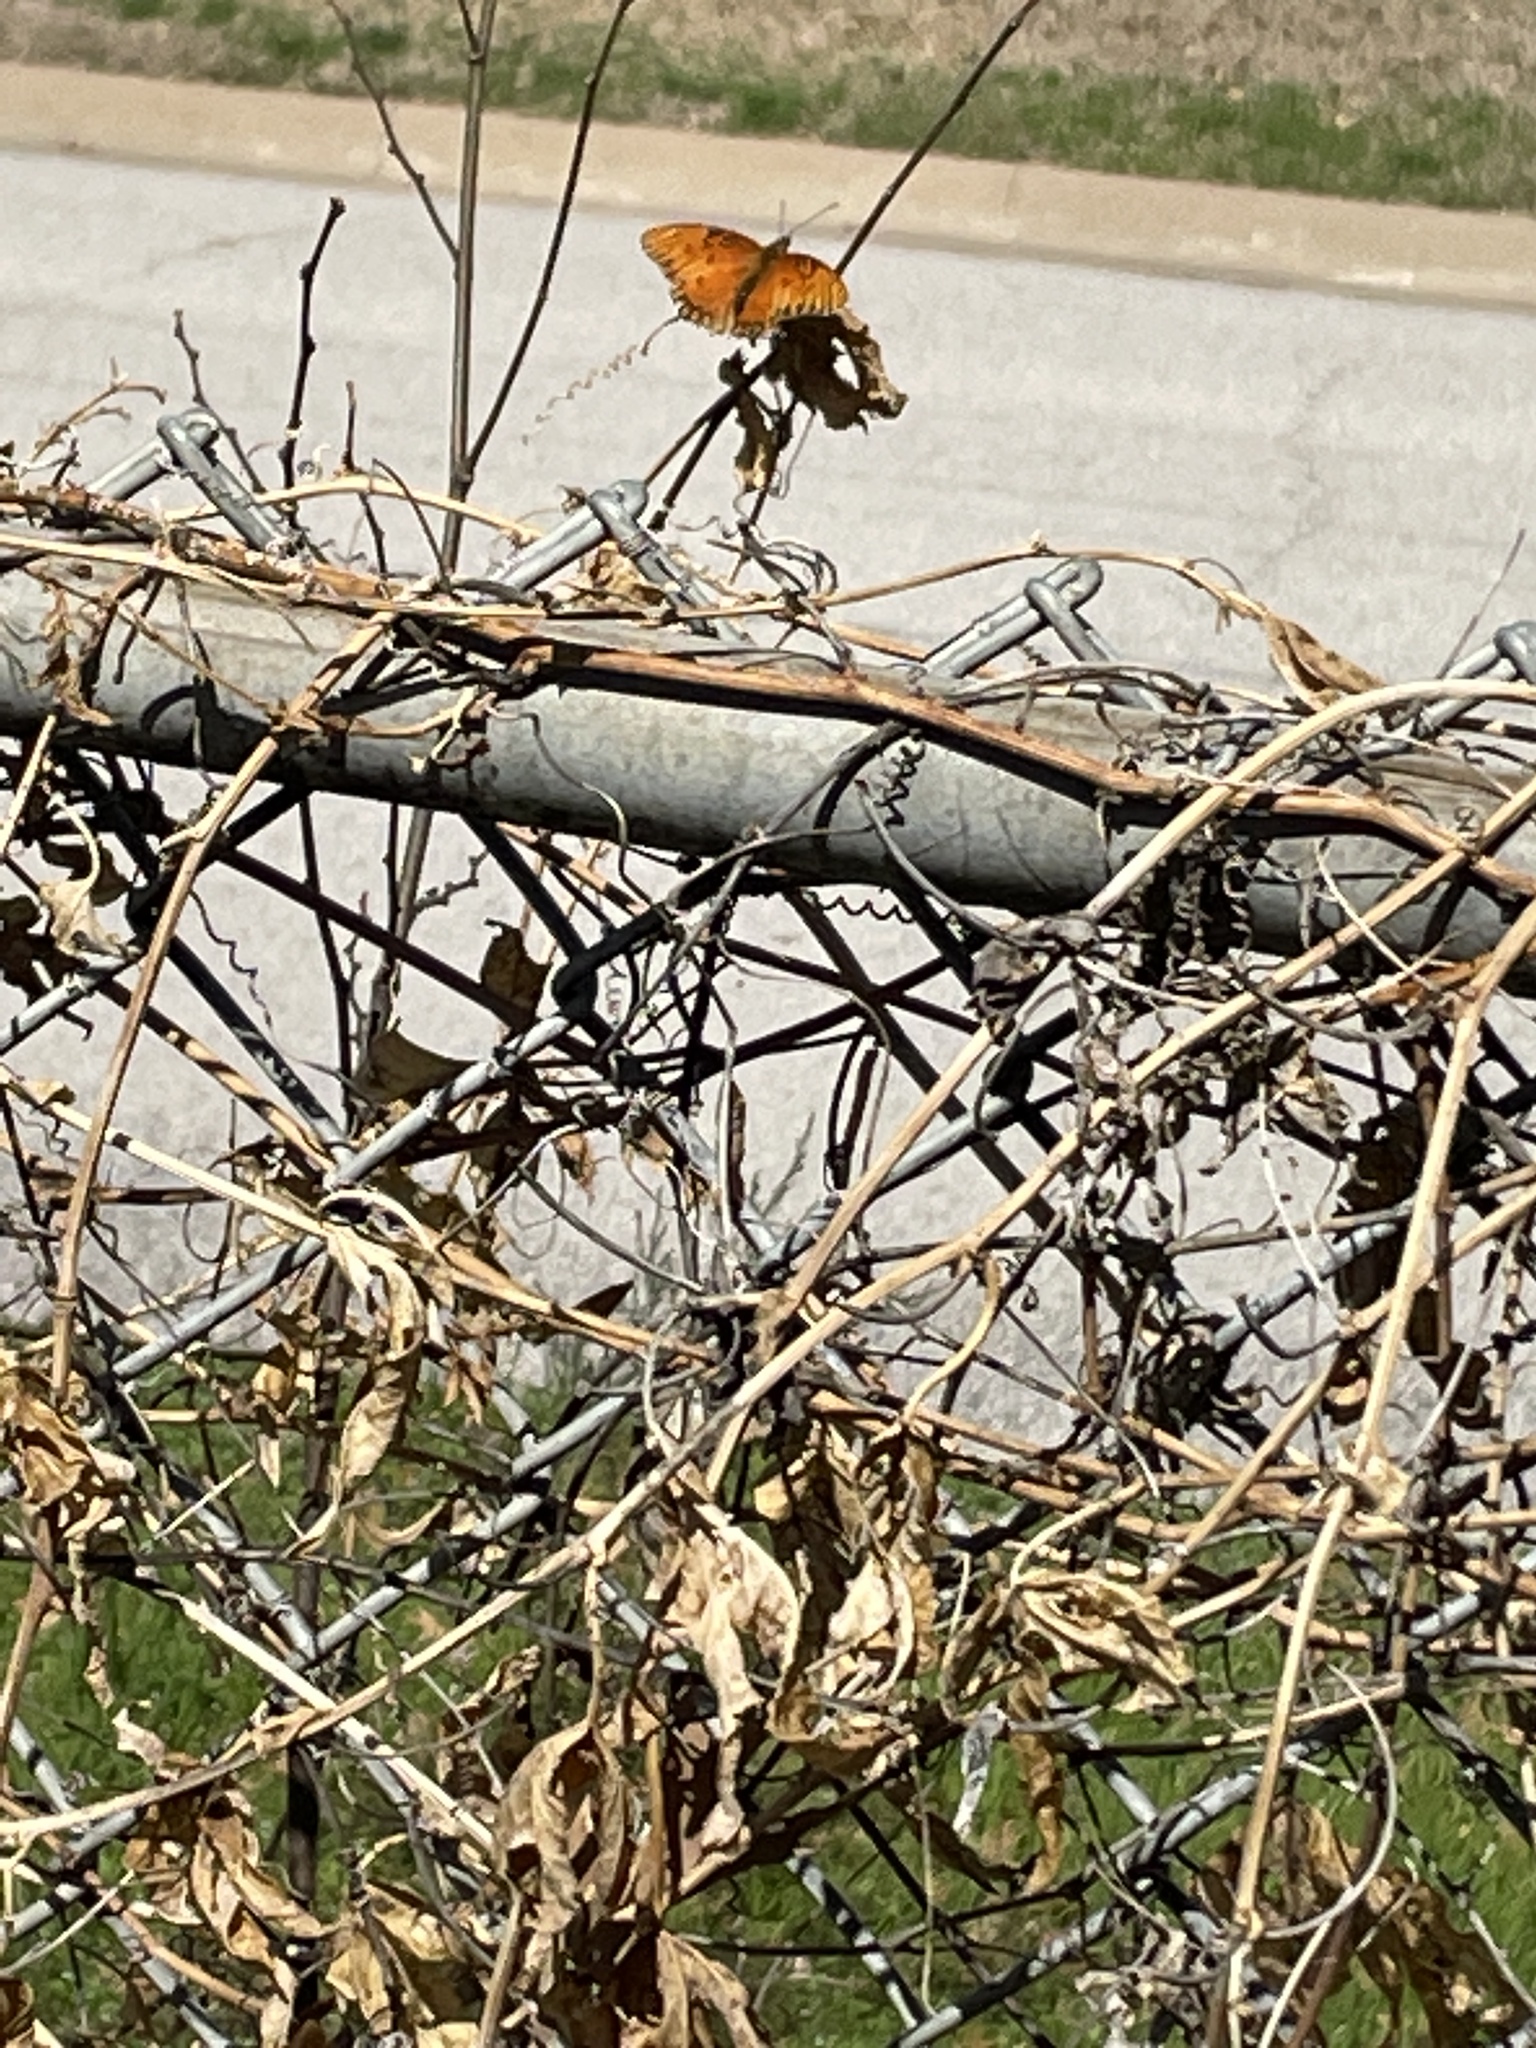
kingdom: Animalia
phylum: Arthropoda
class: Insecta
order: Lepidoptera
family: Nymphalidae
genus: Dione
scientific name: Dione vanillae
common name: Gulf fritillary
